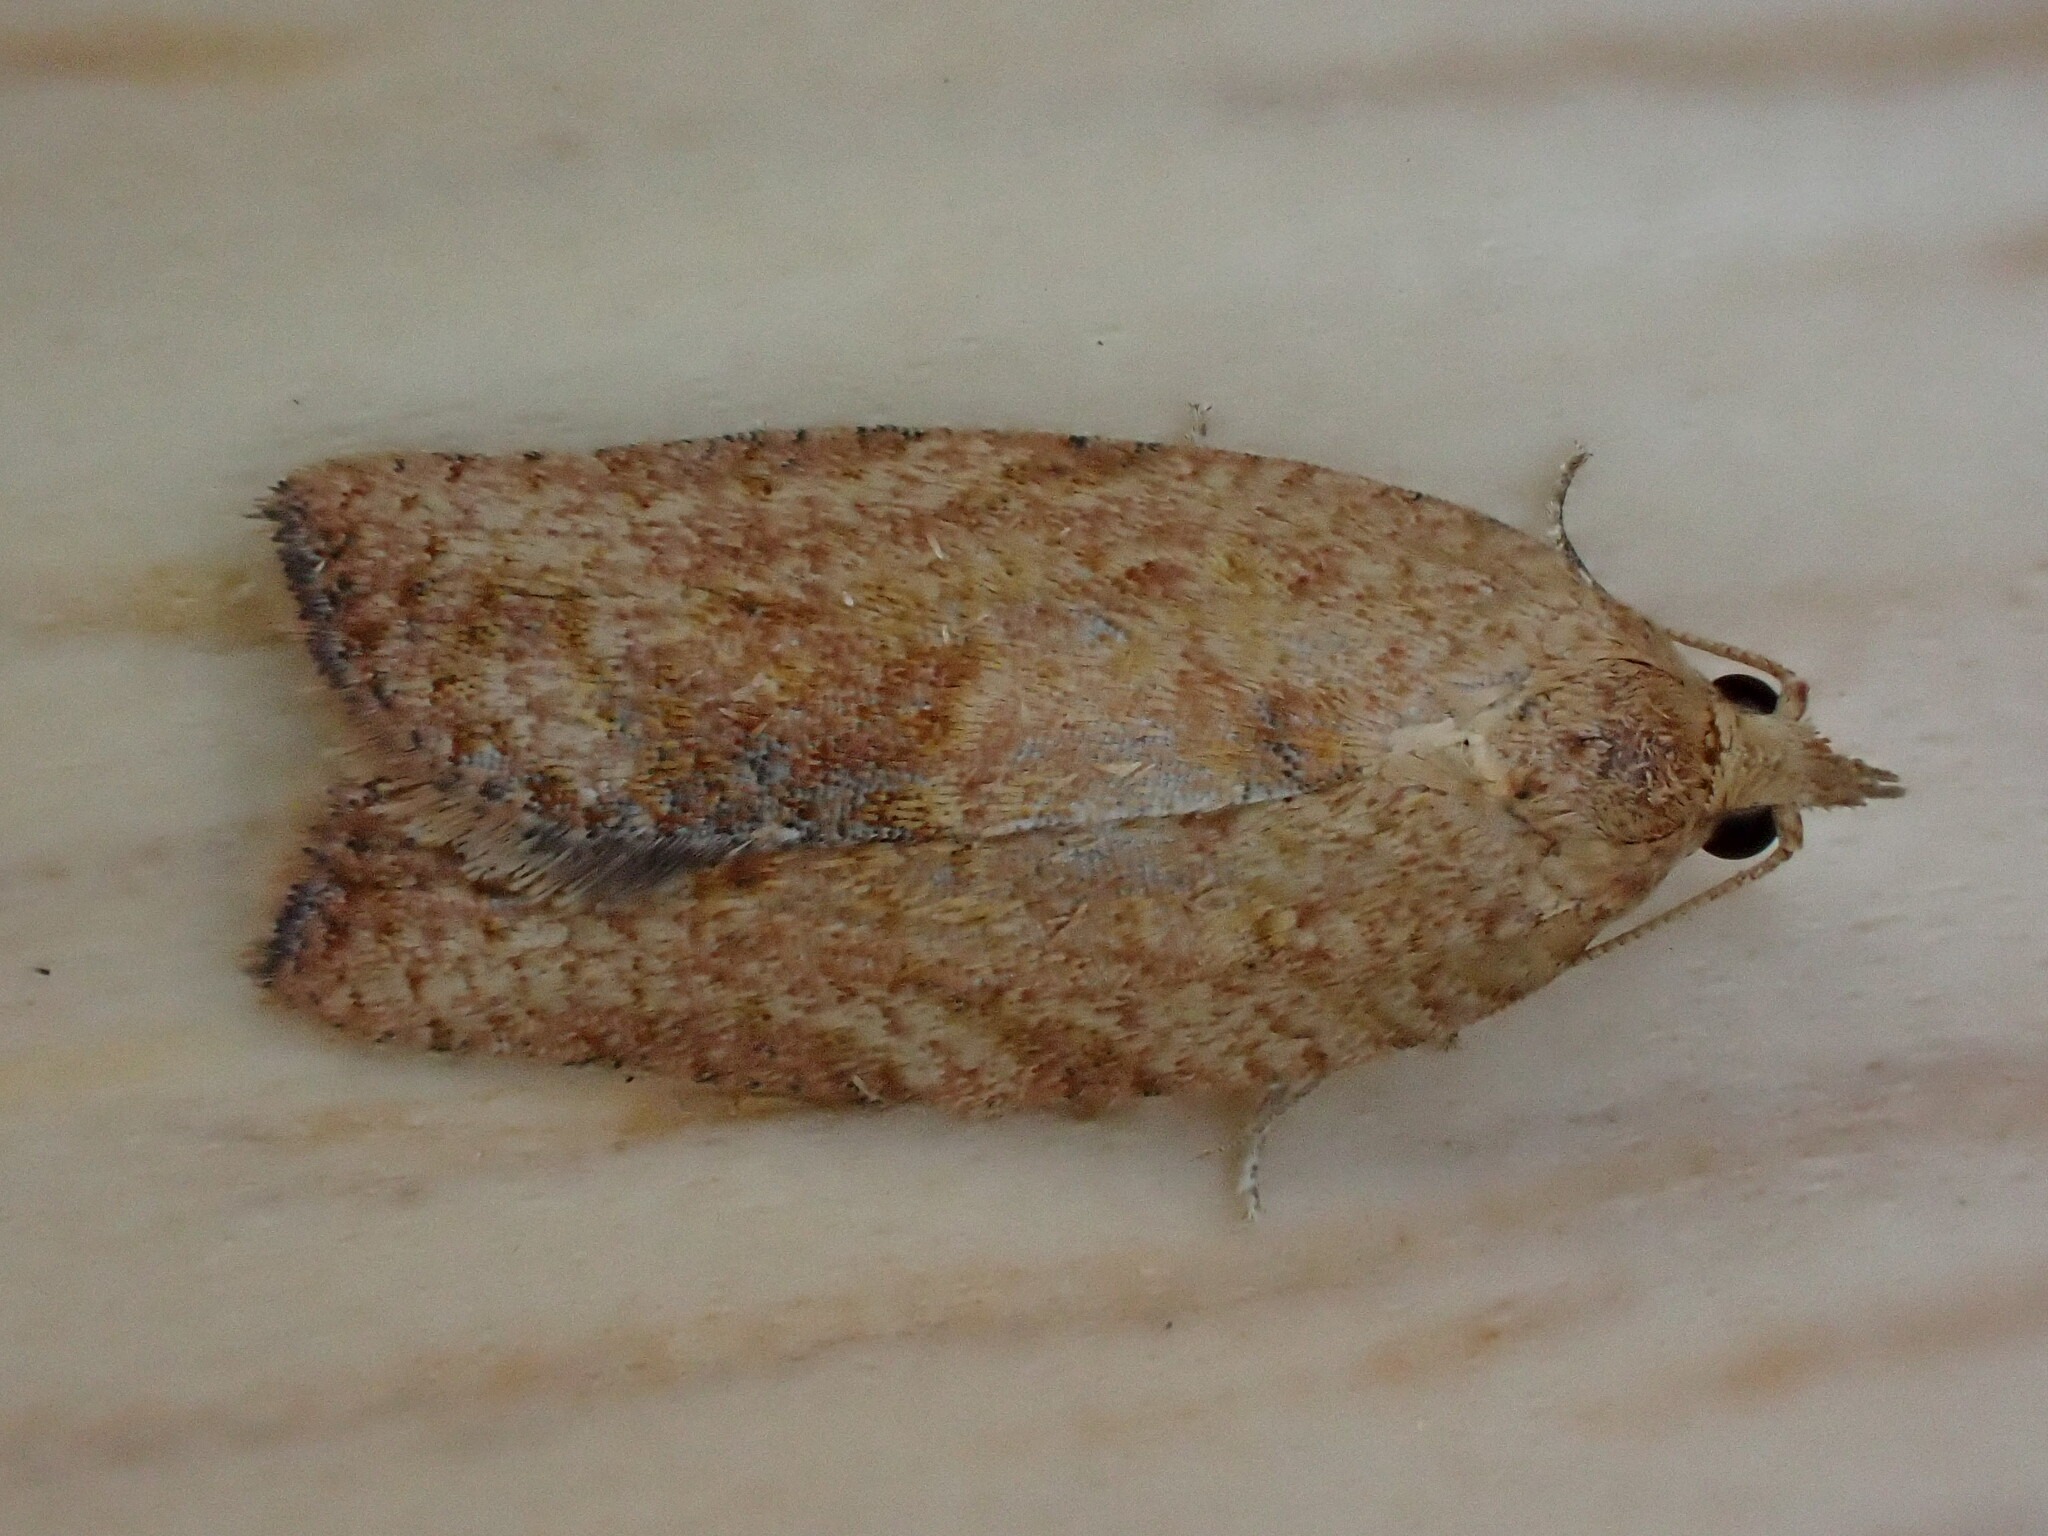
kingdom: Animalia
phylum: Arthropoda
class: Insecta
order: Lepidoptera
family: Tortricidae
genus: Epiphyas
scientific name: Epiphyas postvittana
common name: Light brown apple moth
